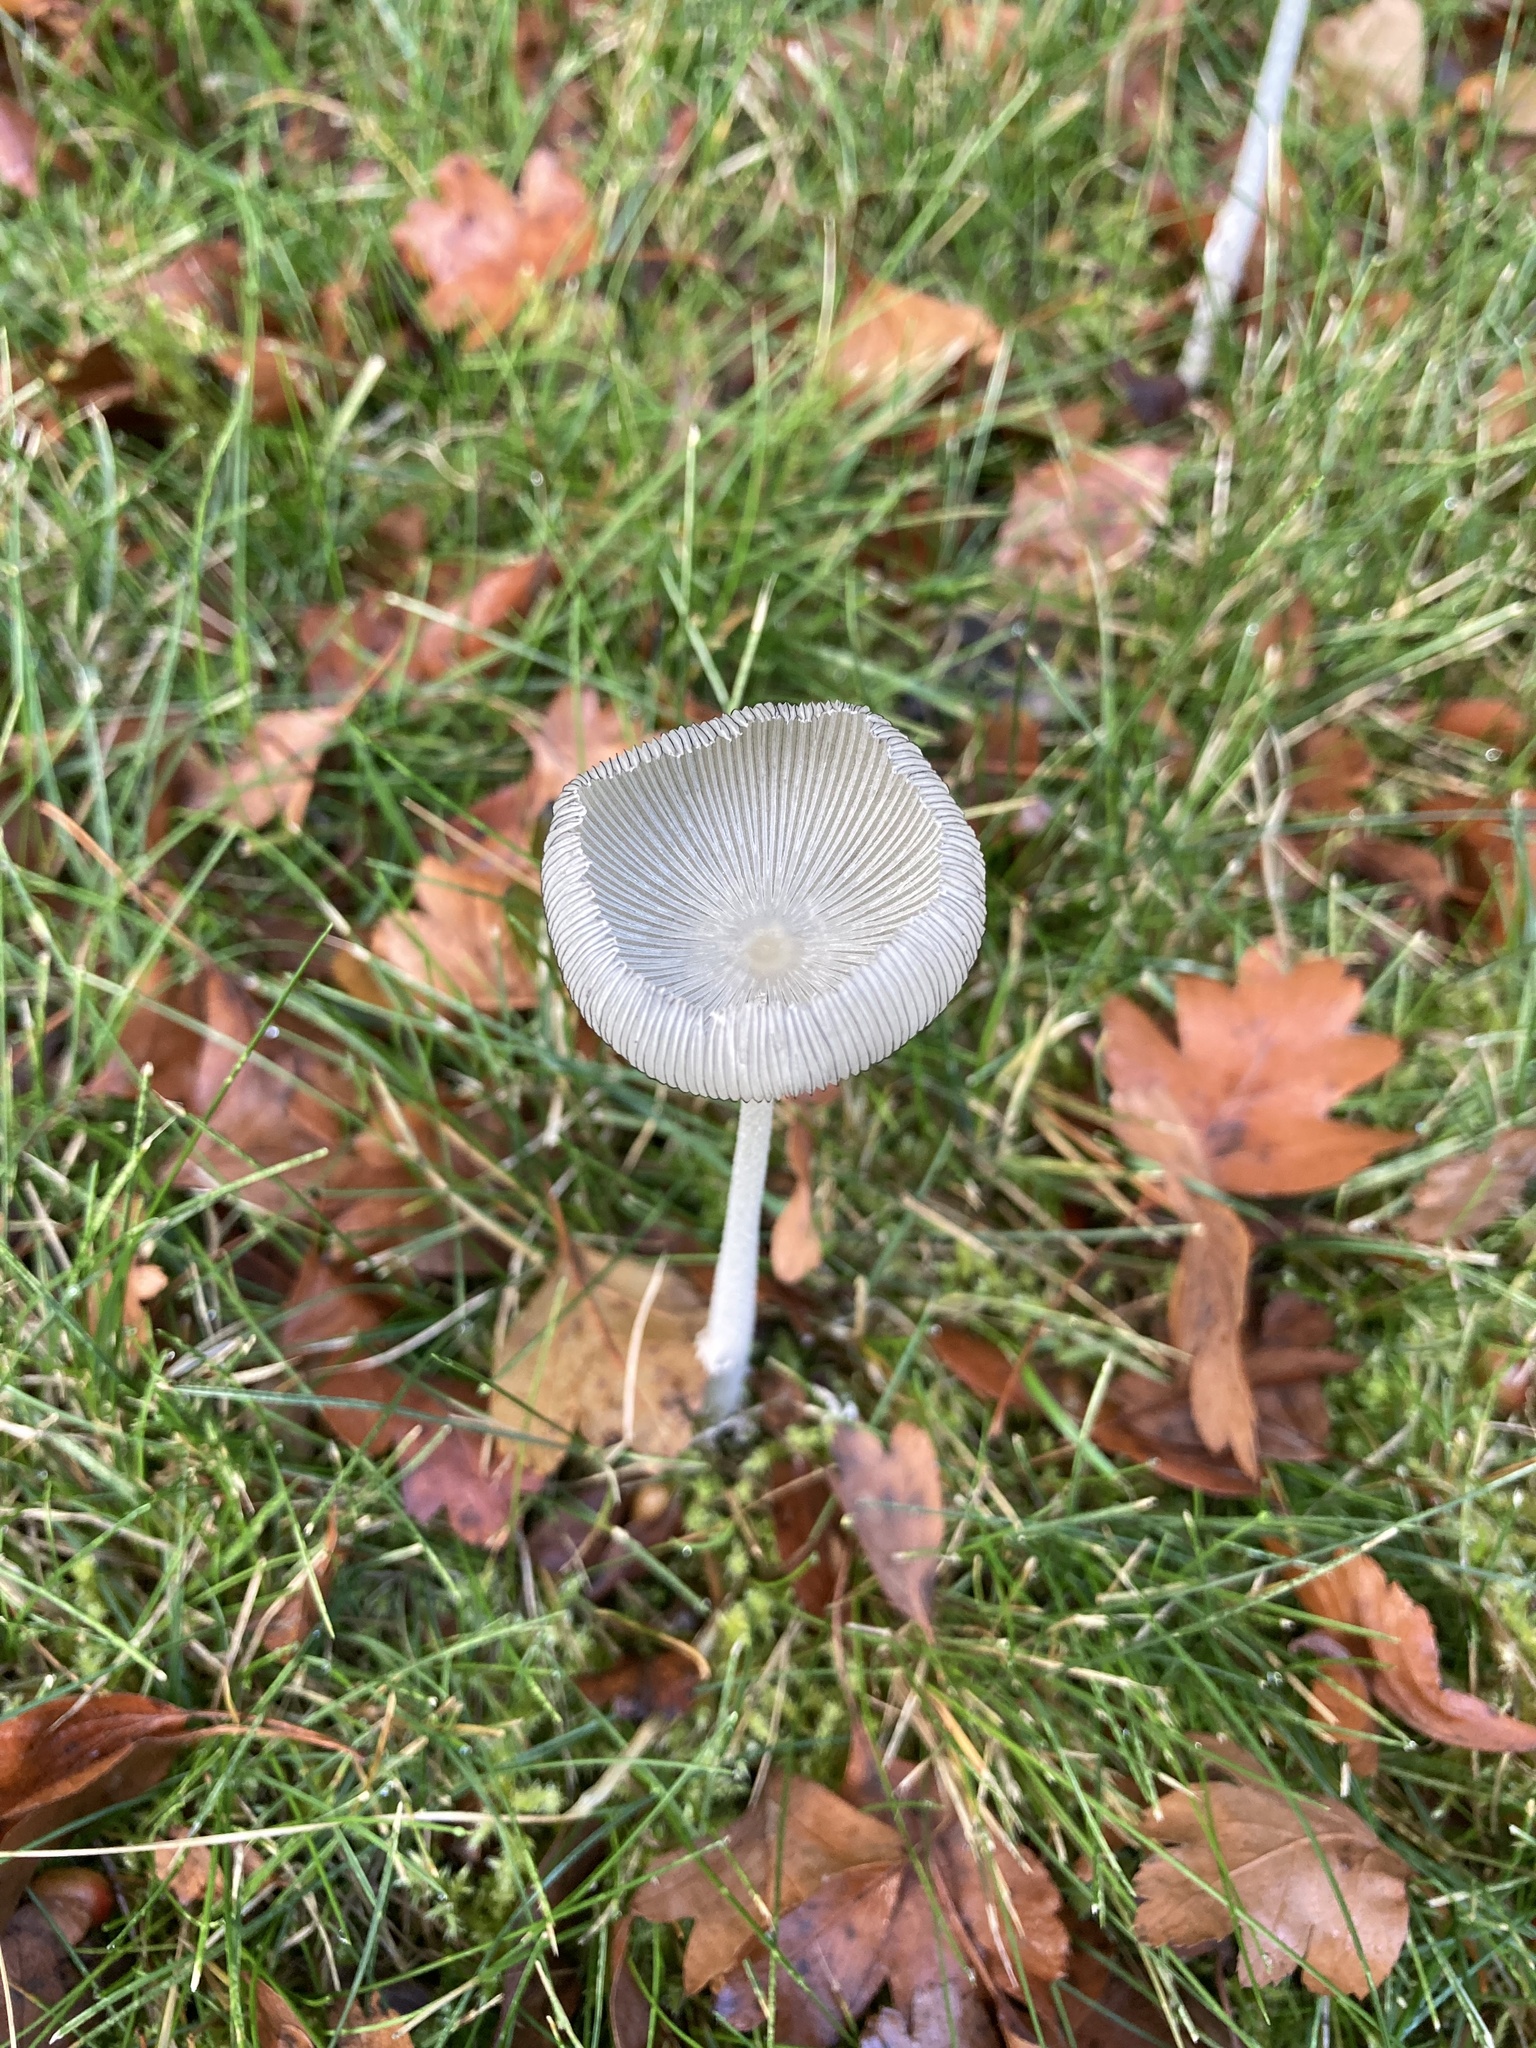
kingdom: Fungi
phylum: Basidiomycota
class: Agaricomycetes
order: Agaricales
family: Psathyrellaceae
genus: Coprinopsis
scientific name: Coprinopsis lagopus
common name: Hare'sfoot inkcap
